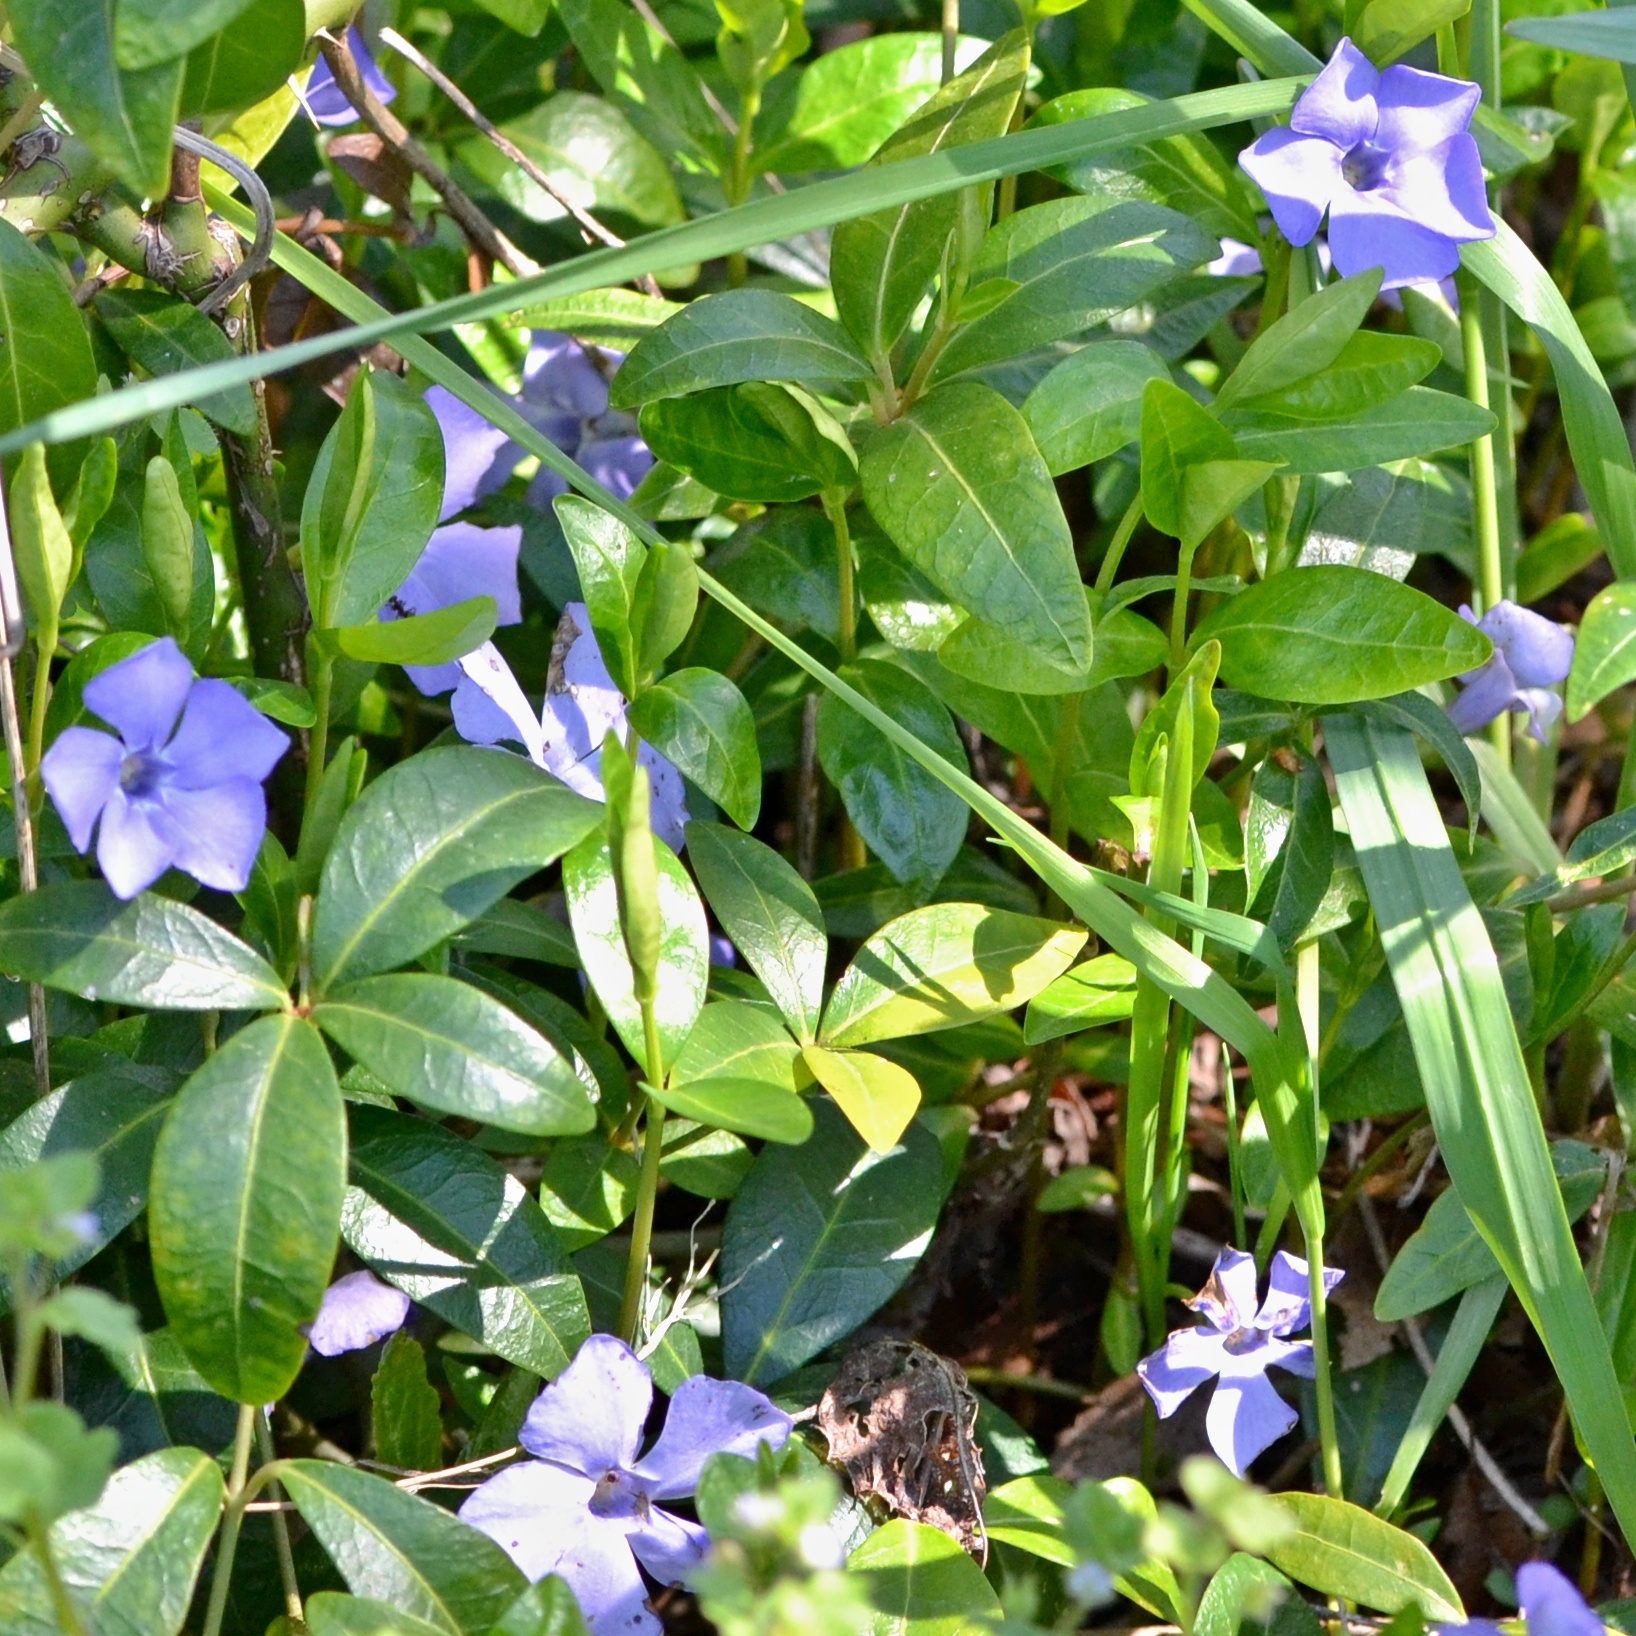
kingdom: Plantae
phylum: Tracheophyta
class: Magnoliopsida
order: Gentianales
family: Apocynaceae
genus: Vinca
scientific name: Vinca minor
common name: Lesser periwinkle
